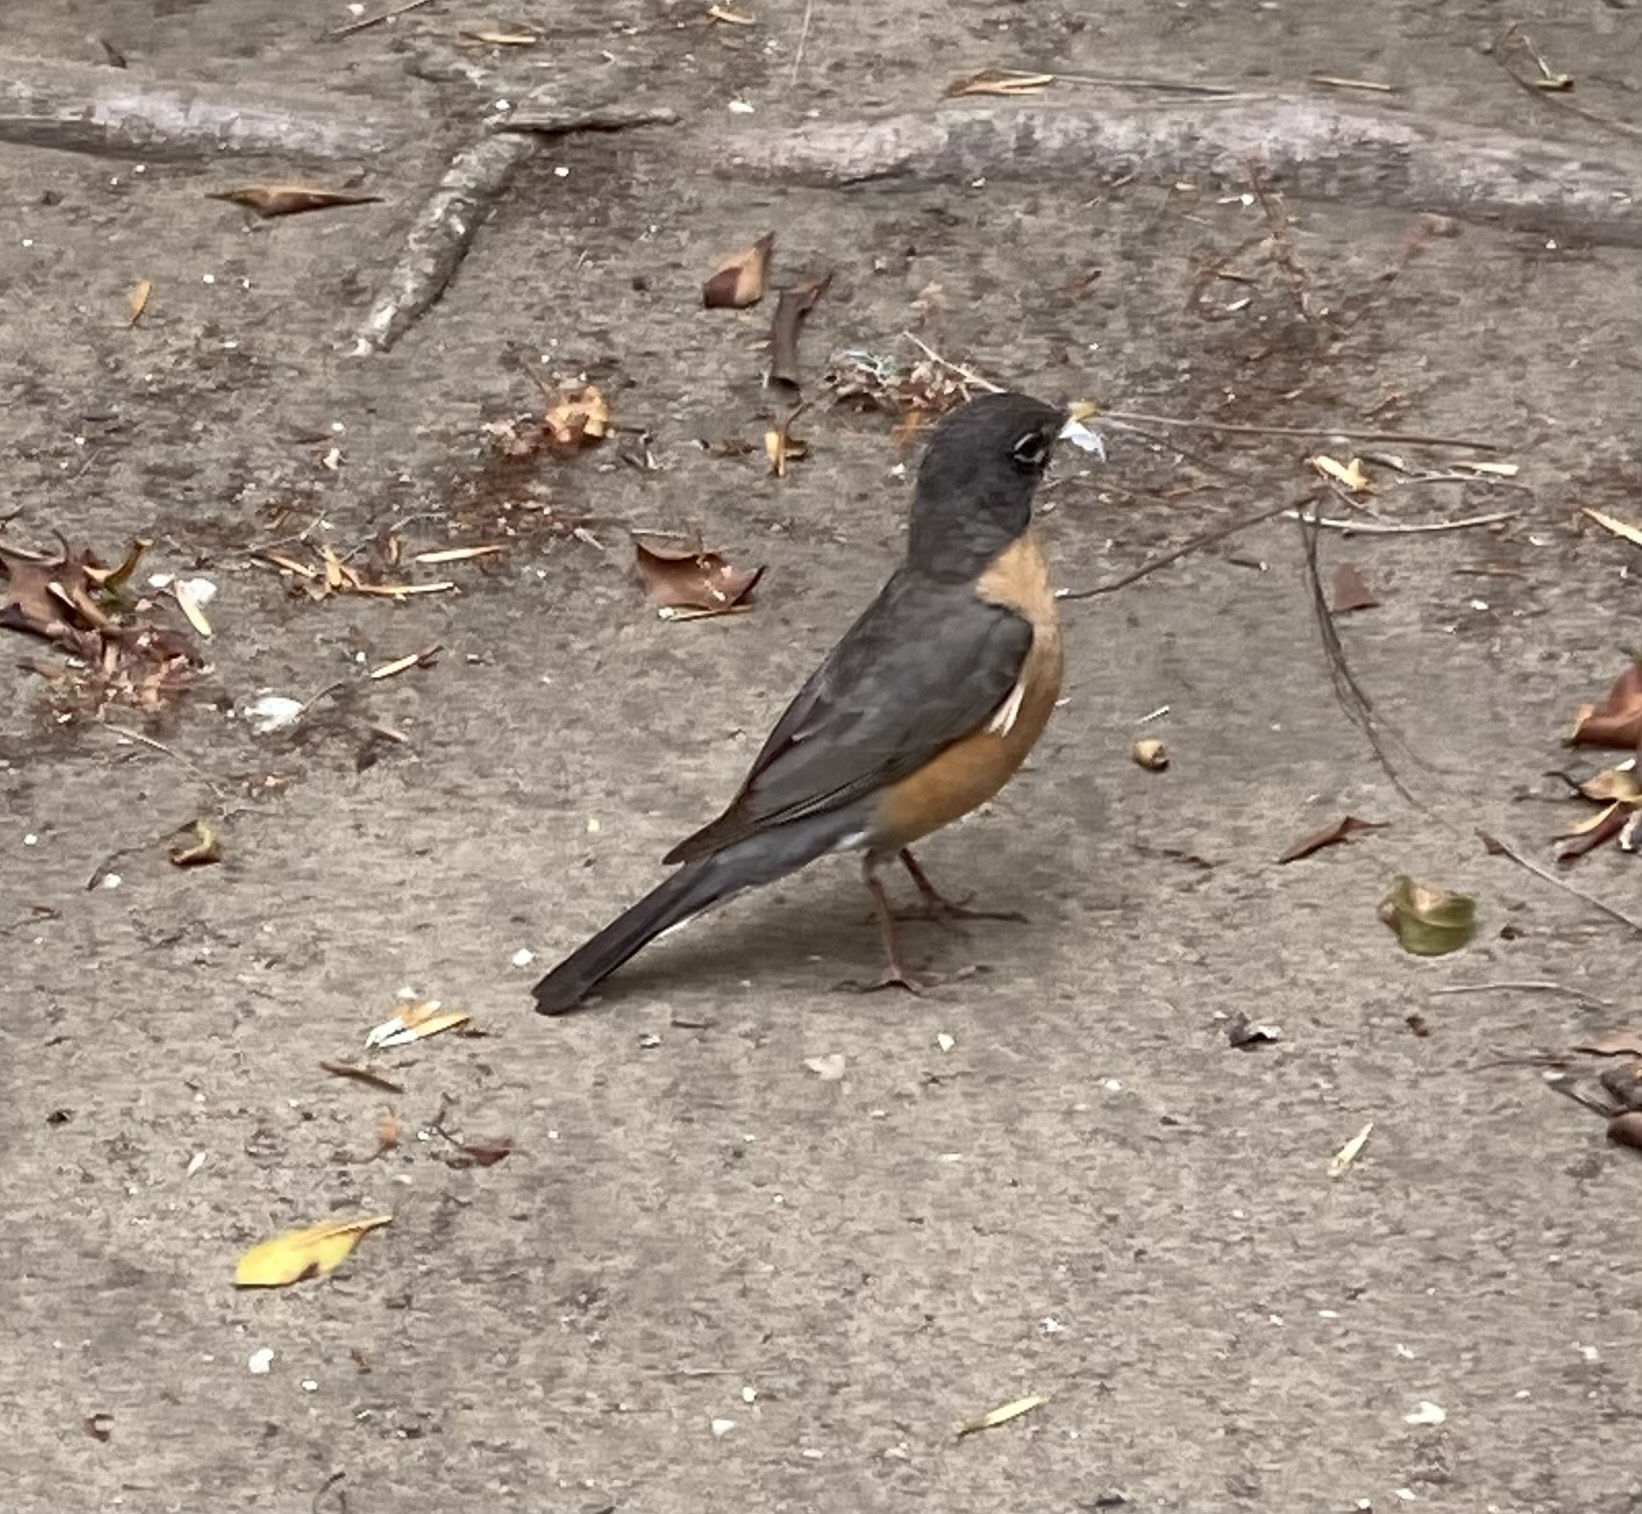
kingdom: Animalia
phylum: Chordata
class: Aves
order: Passeriformes
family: Turdidae
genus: Turdus
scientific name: Turdus migratorius
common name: American robin
